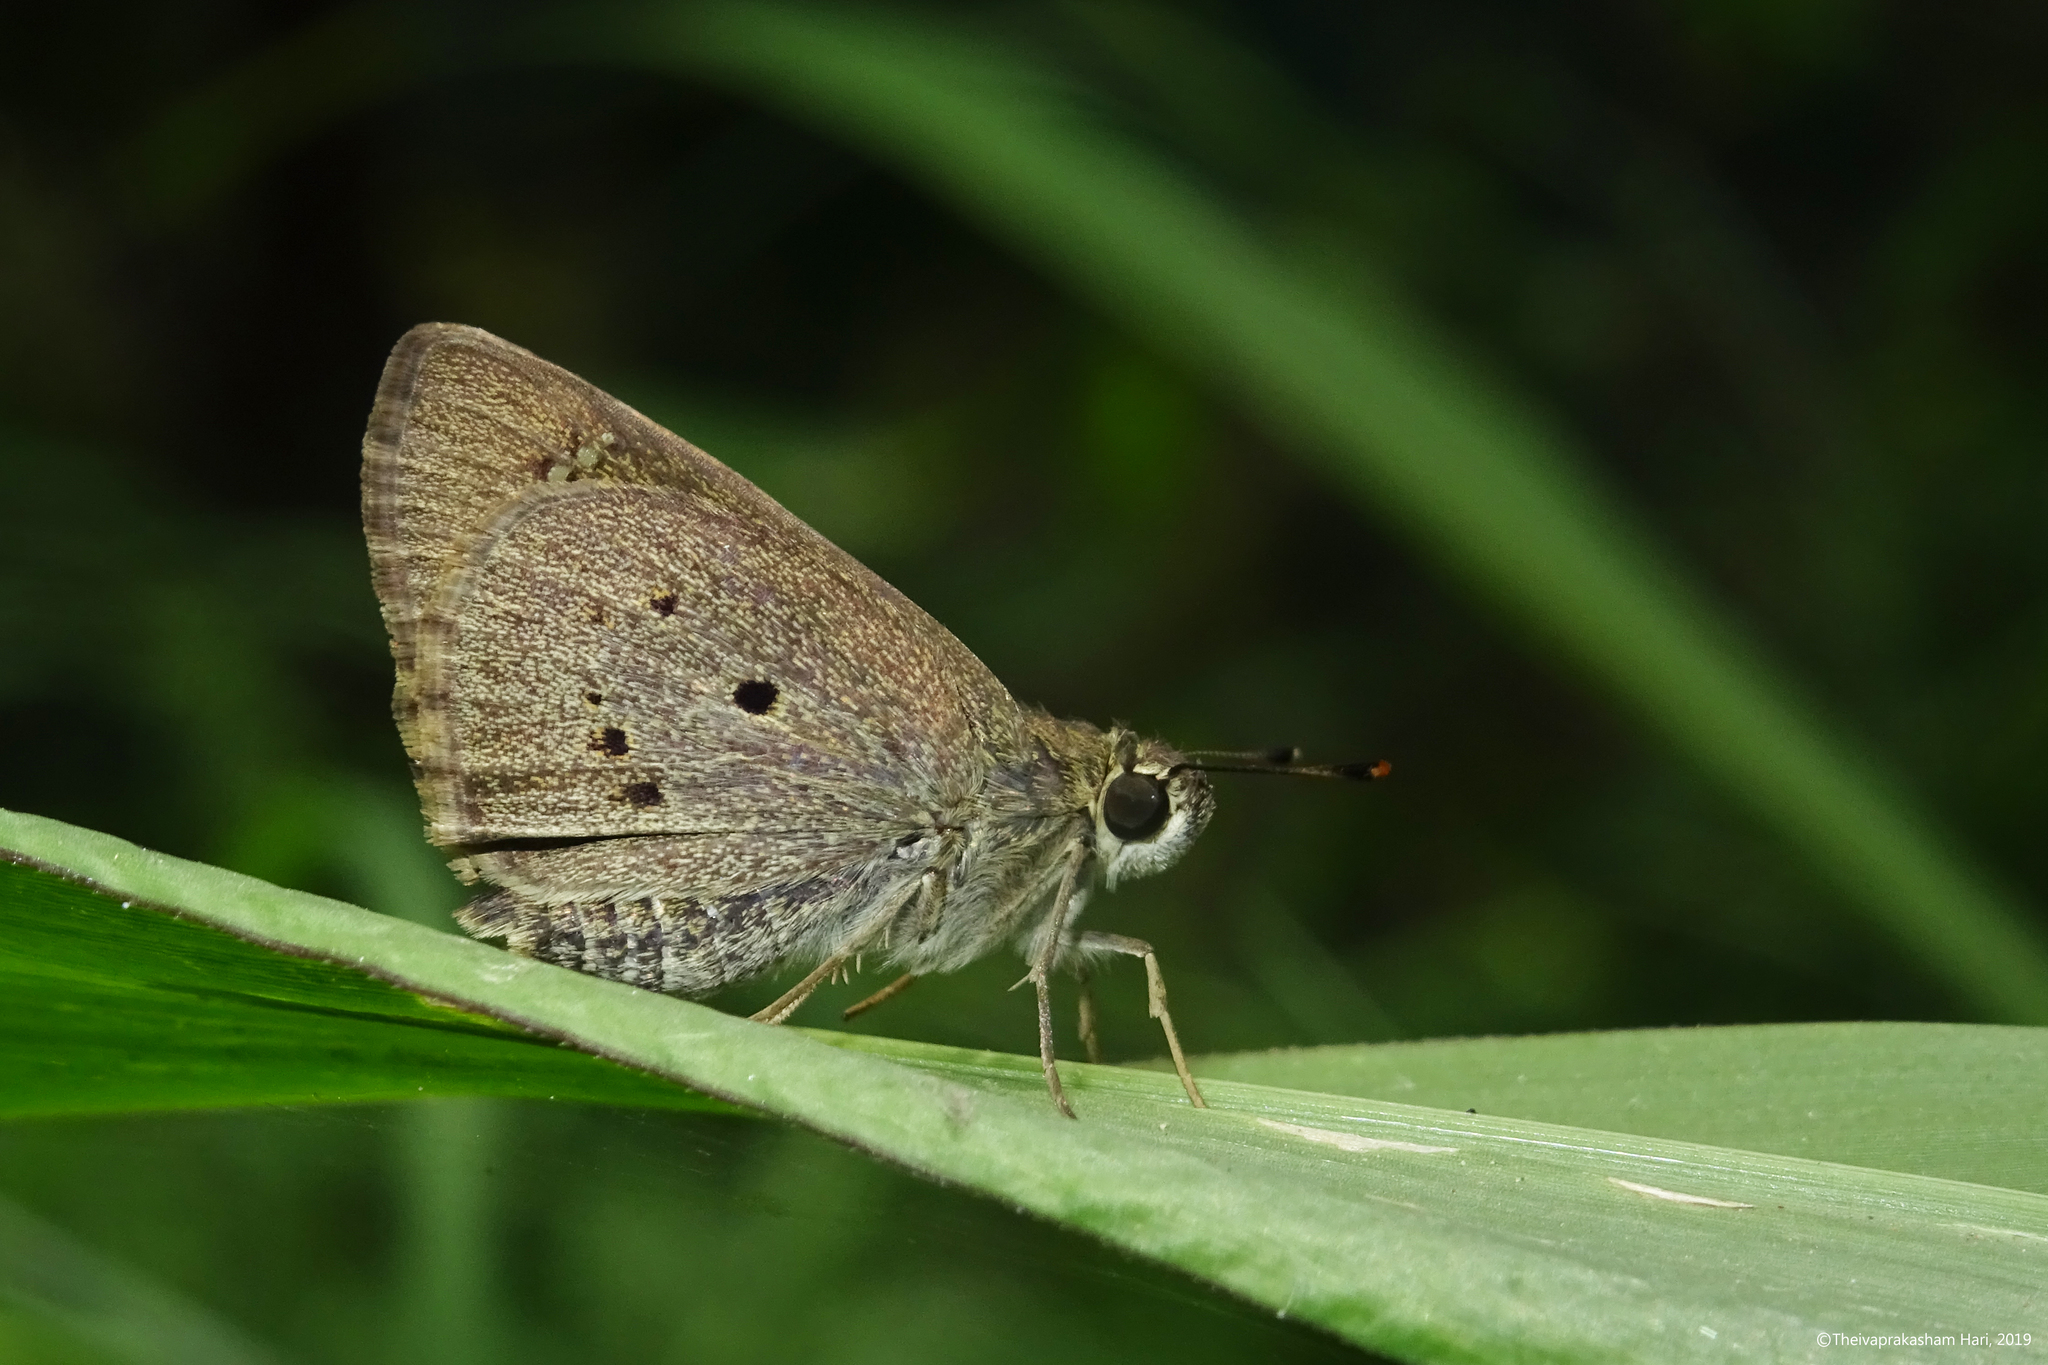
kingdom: Animalia
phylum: Arthropoda
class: Insecta
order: Lepidoptera
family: Hesperiidae
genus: Suastus
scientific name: Suastus gremius
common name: Indian palm bob
